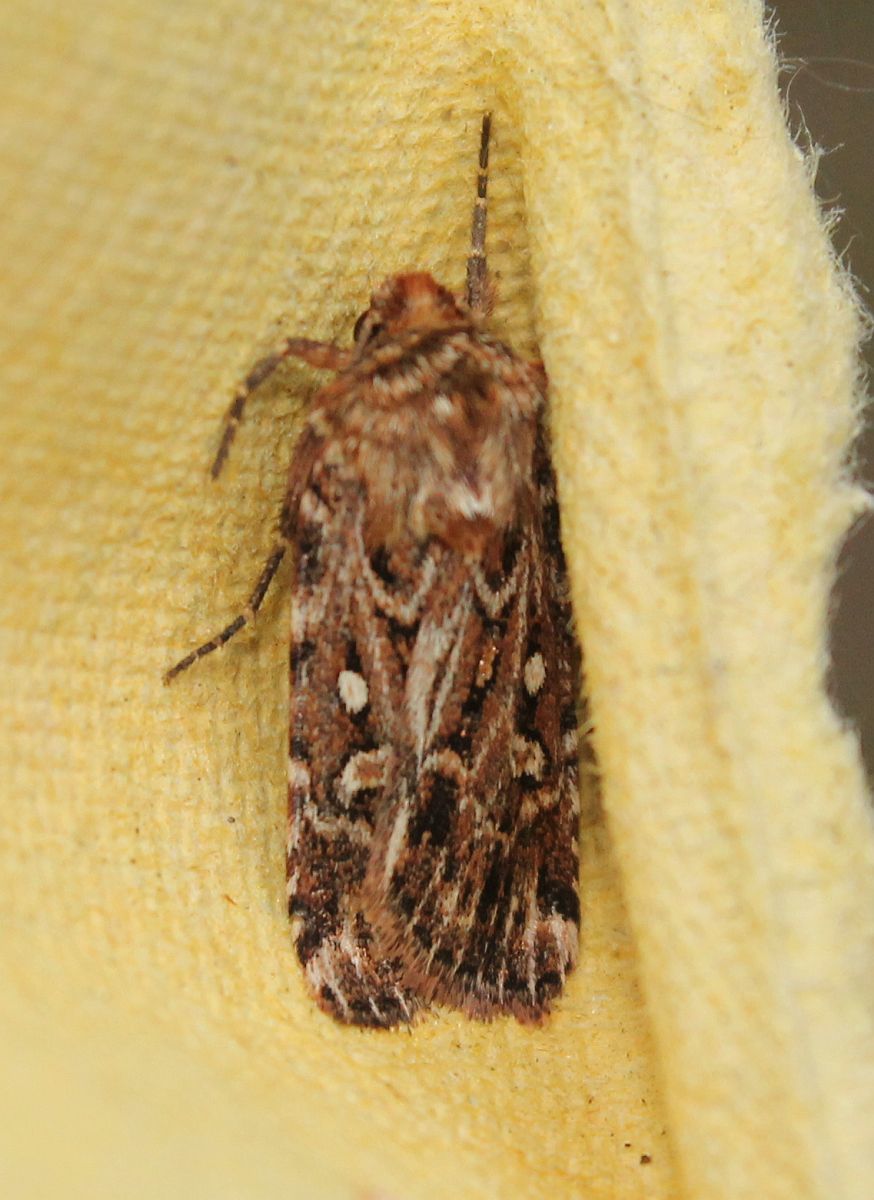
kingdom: Animalia
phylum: Arthropoda
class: Insecta
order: Lepidoptera
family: Noctuidae
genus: Lycophotia
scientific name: Lycophotia porphyrea
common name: True lover's knot
